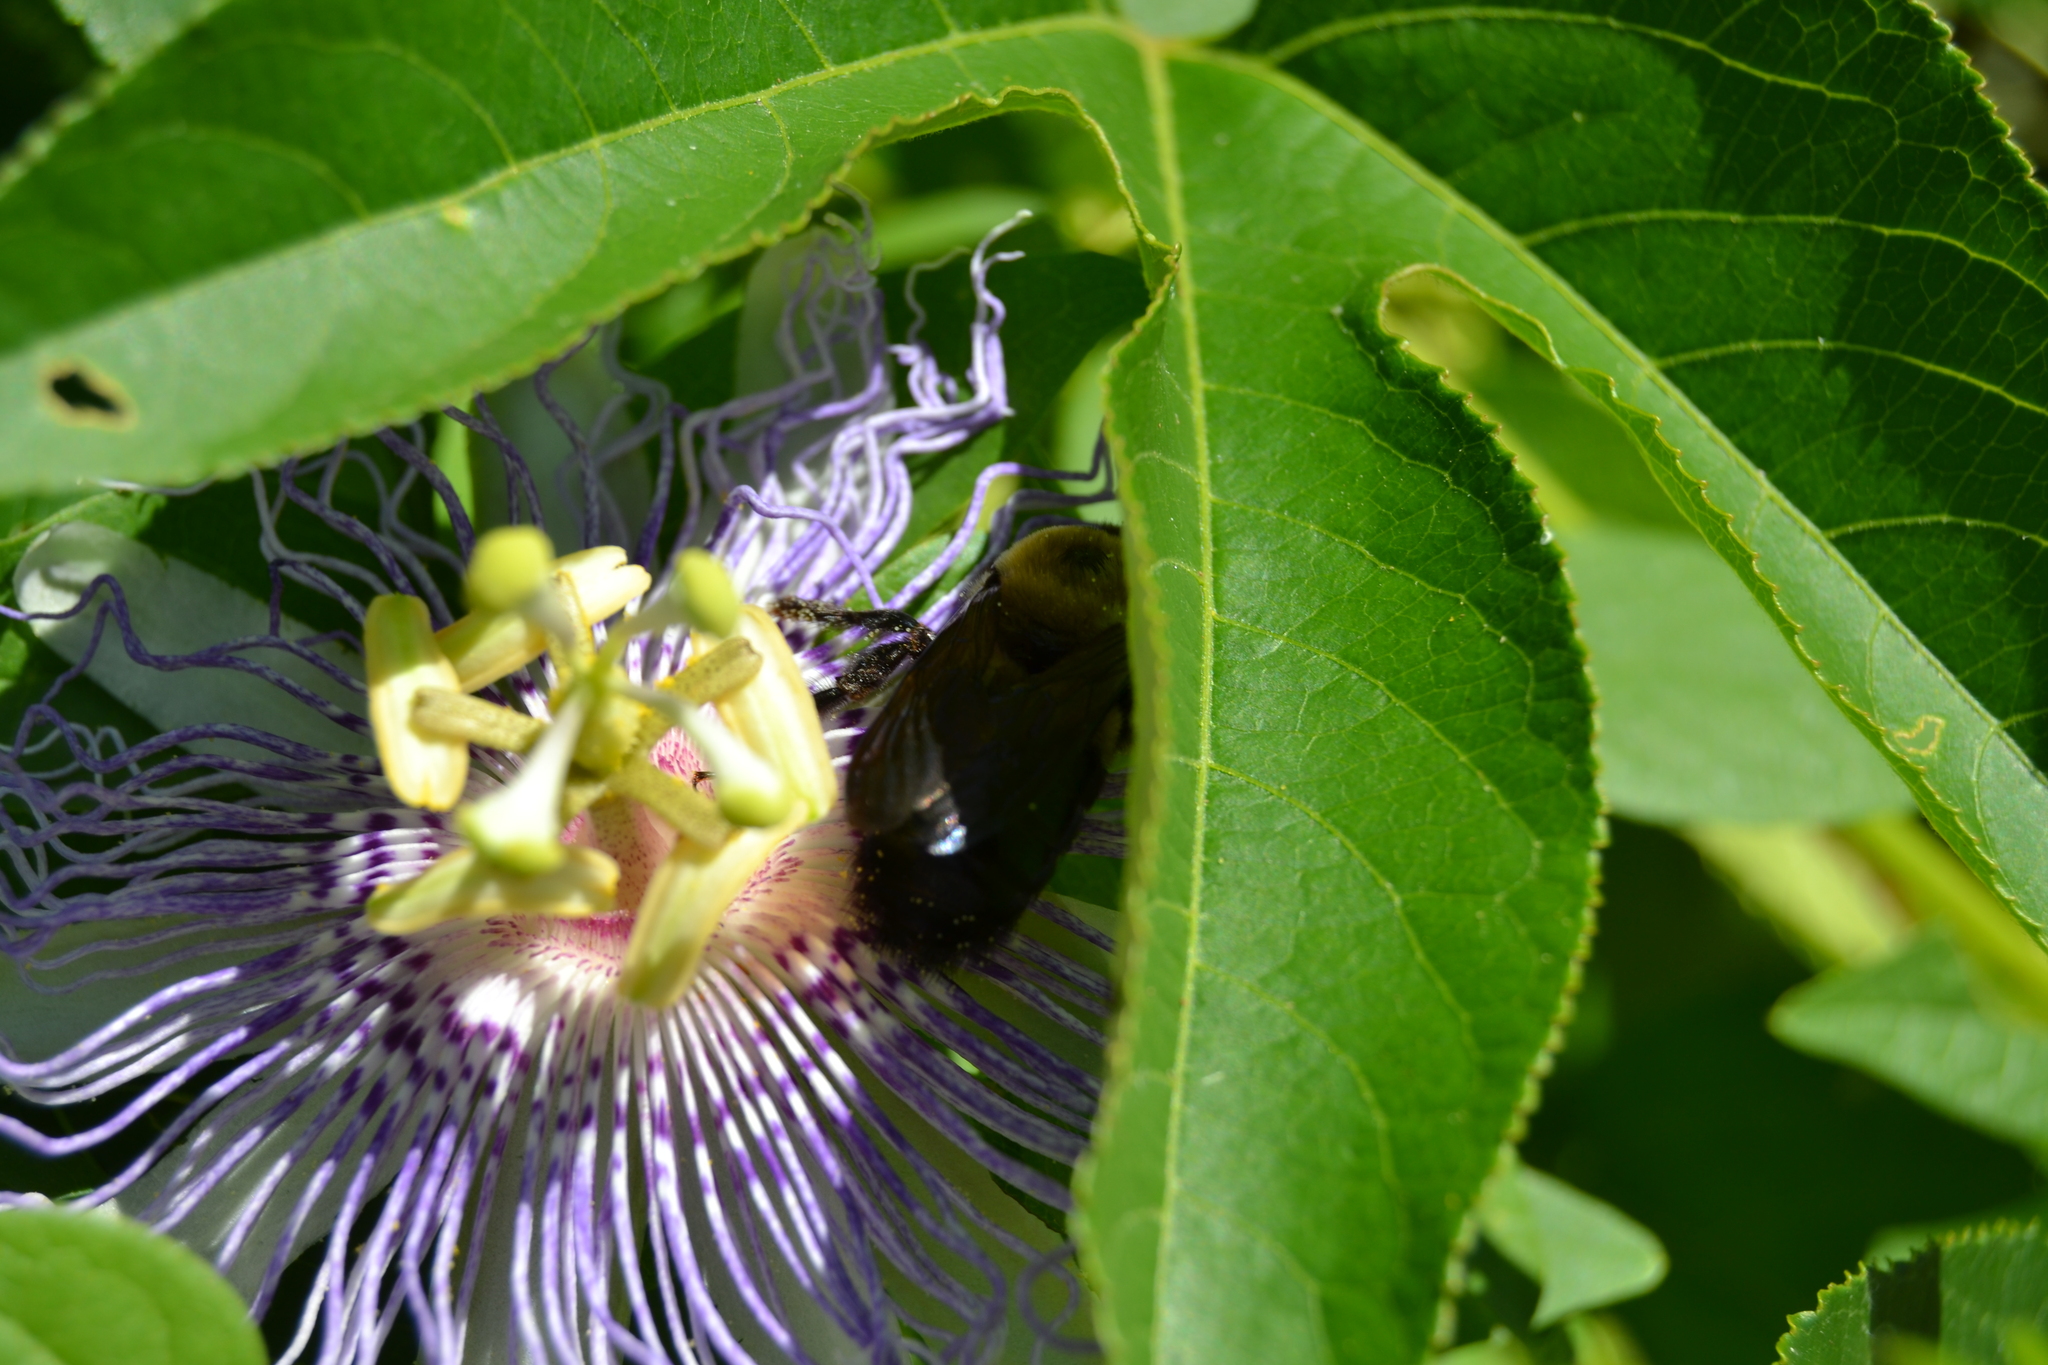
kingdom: Animalia
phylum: Arthropoda
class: Insecta
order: Hymenoptera
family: Apidae
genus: Xylocopa
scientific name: Xylocopa virginica
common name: Carpenter bee
